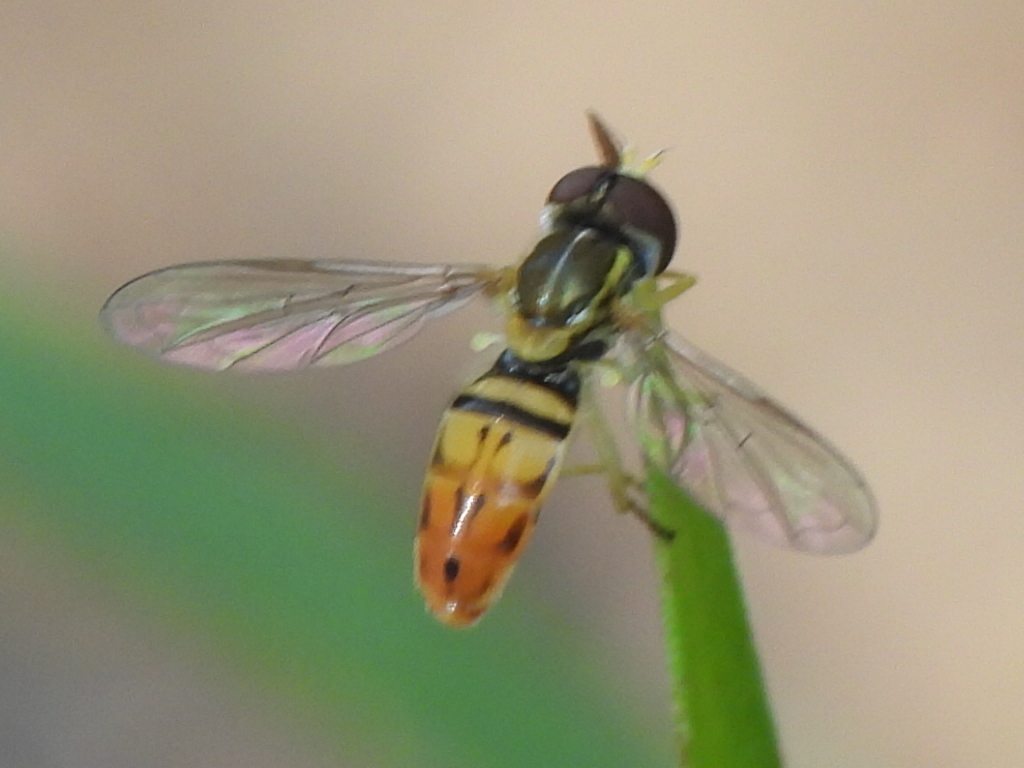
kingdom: Animalia
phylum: Arthropoda
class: Insecta
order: Diptera
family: Syrphidae
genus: Toxomerus
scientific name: Toxomerus marginatus
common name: Syrphid fly
